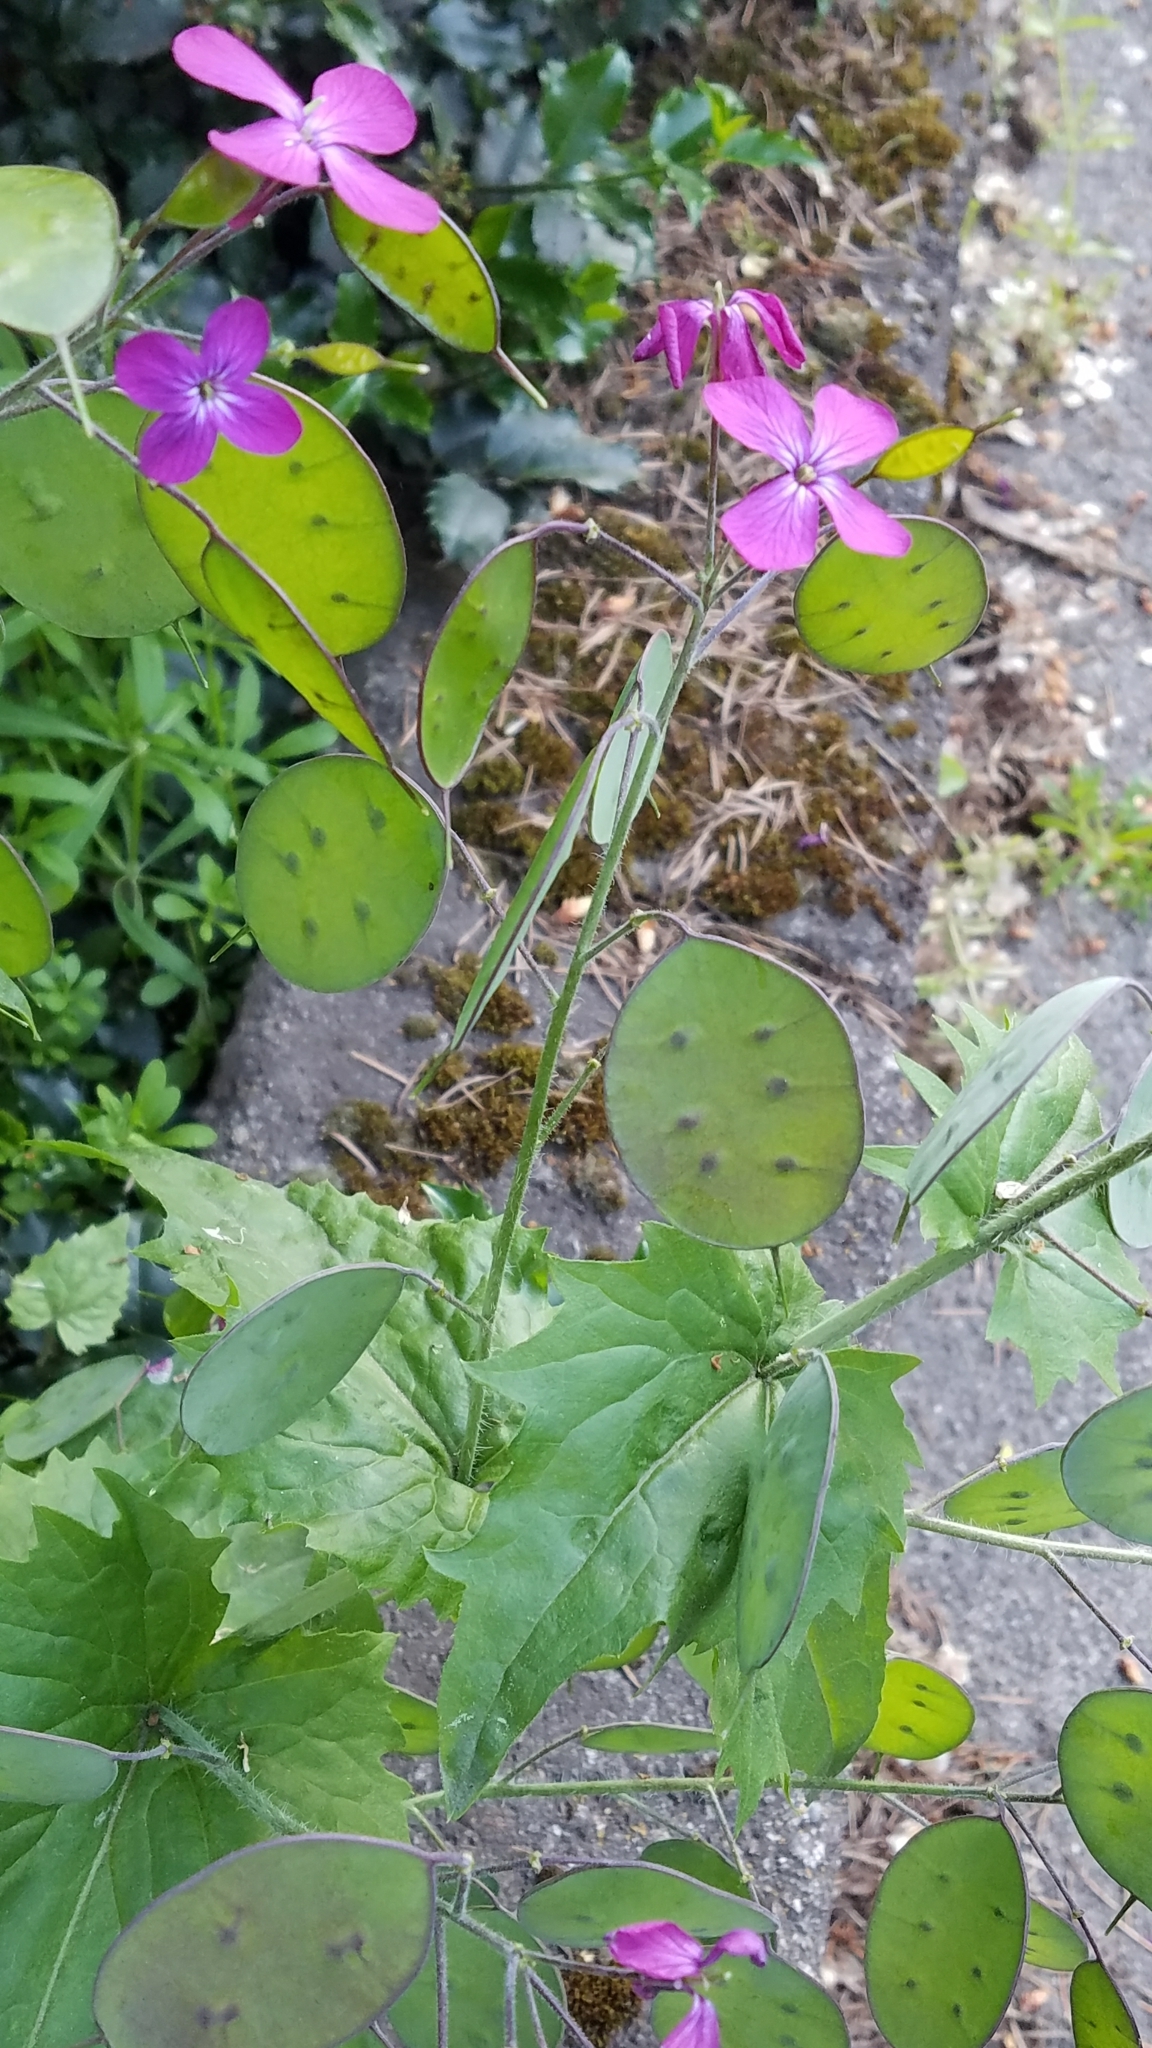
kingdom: Plantae
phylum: Tracheophyta
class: Magnoliopsida
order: Brassicales
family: Brassicaceae
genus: Lunaria
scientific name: Lunaria annua
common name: Honesty
